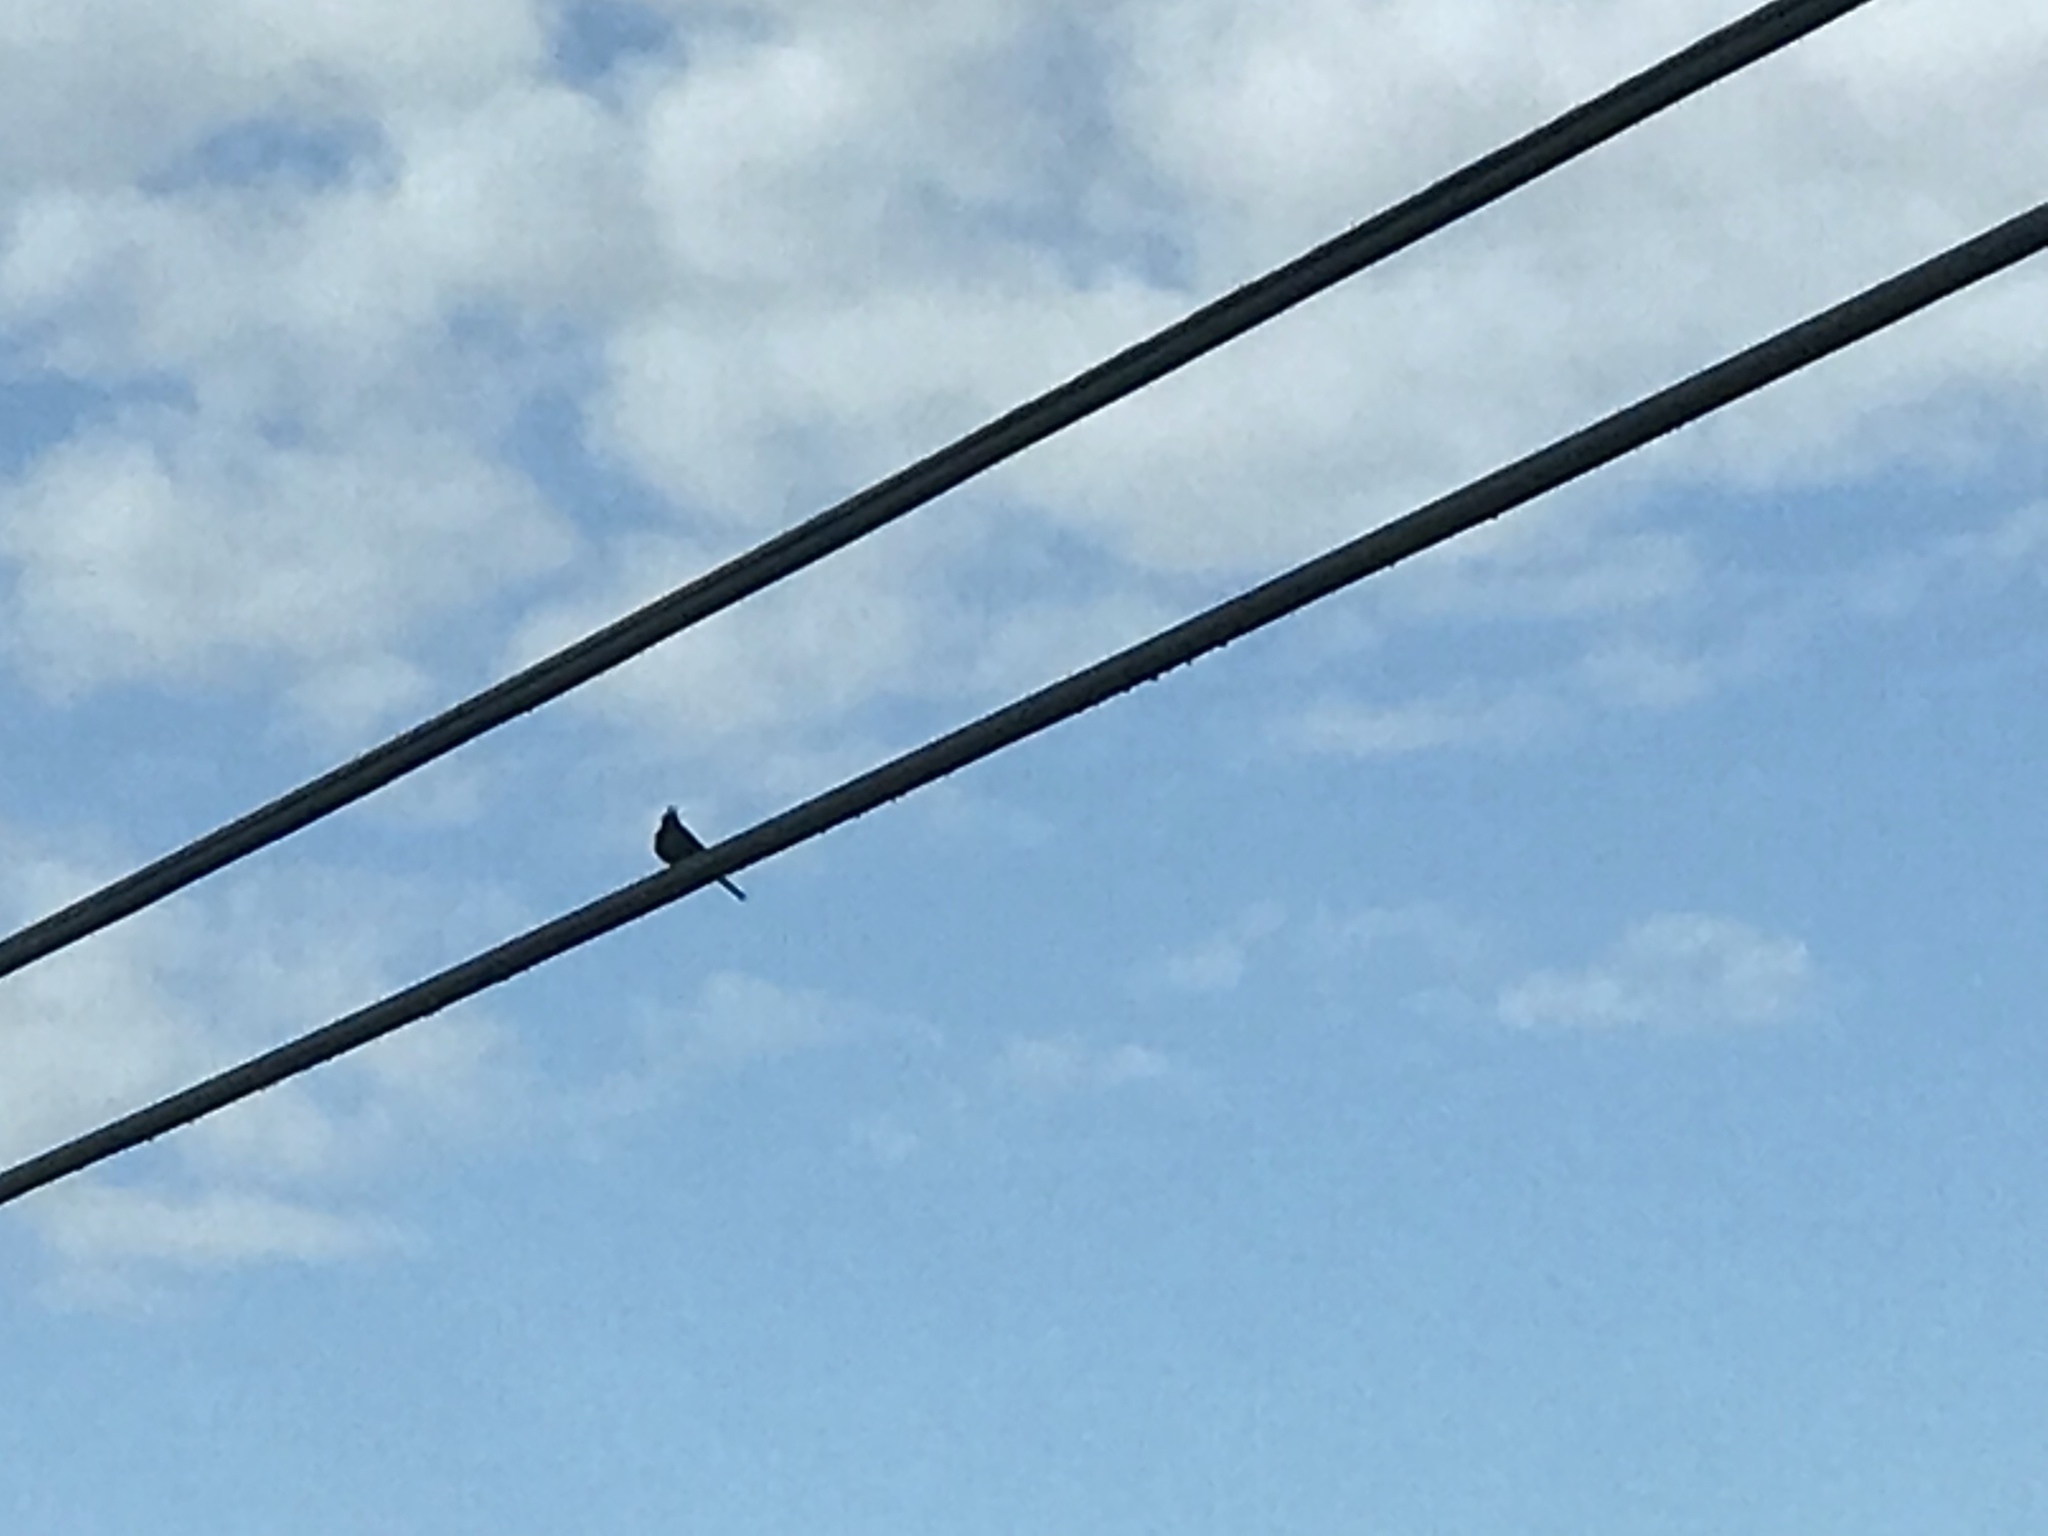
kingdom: Animalia
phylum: Chordata
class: Aves
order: Passeriformes
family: Ptilogonatidae
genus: Phainopepla
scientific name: Phainopepla nitens
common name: Phainopepla
